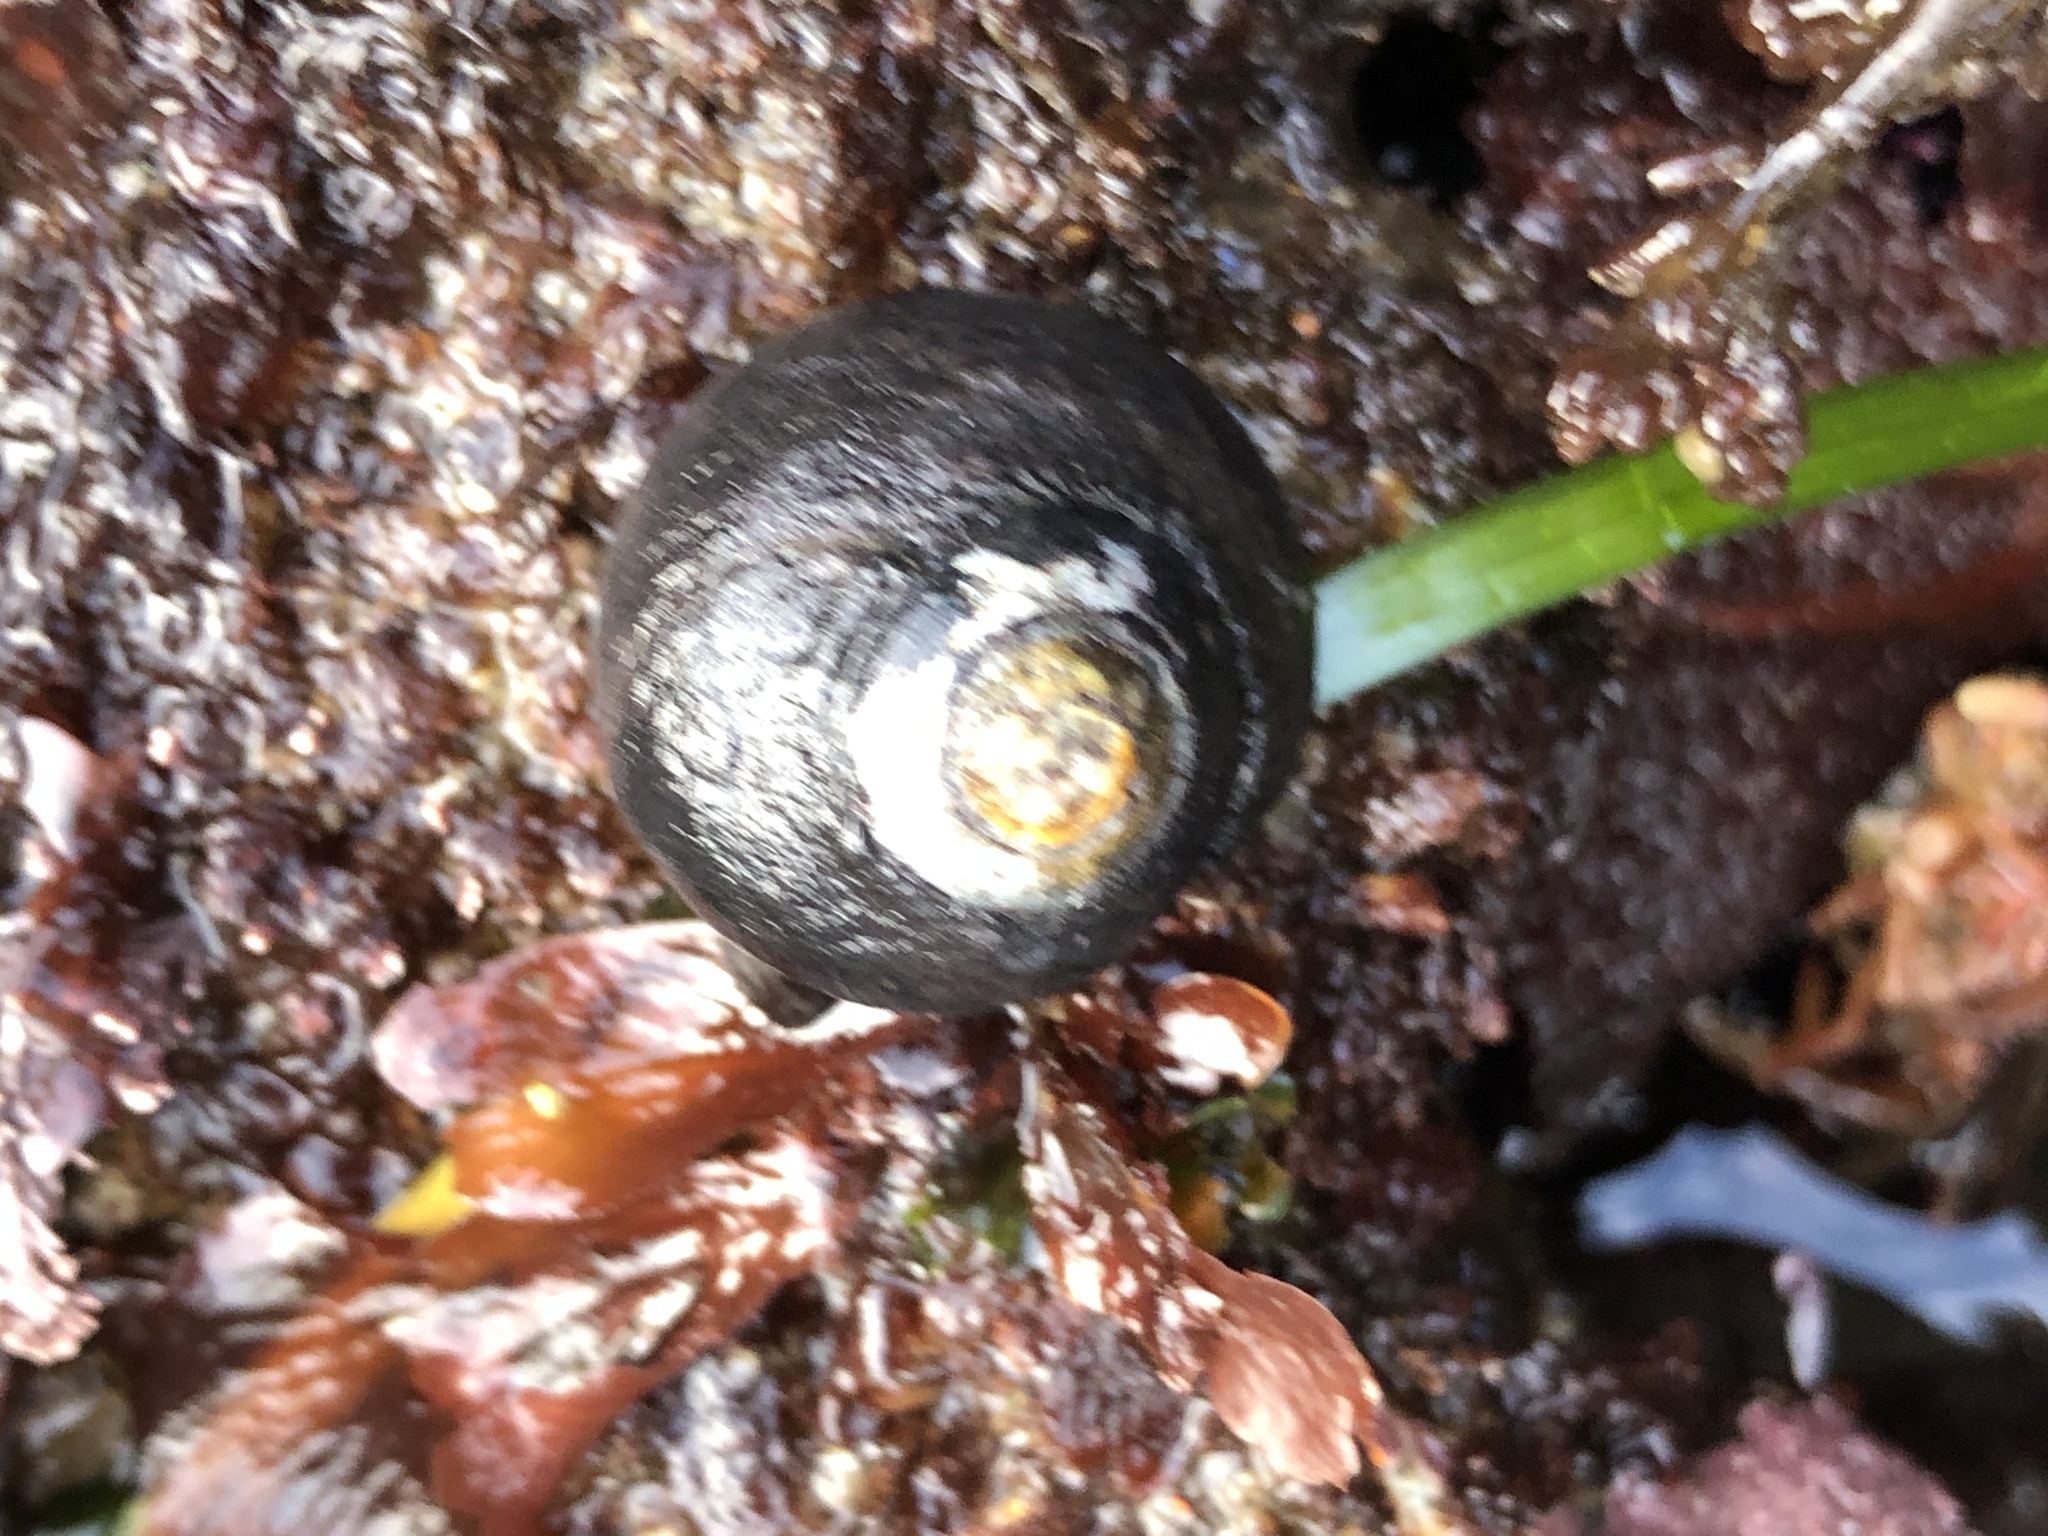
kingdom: Animalia
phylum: Mollusca
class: Gastropoda
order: Trochida
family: Tegulidae
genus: Tegula
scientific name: Tegula funebralis
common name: Black tegula
